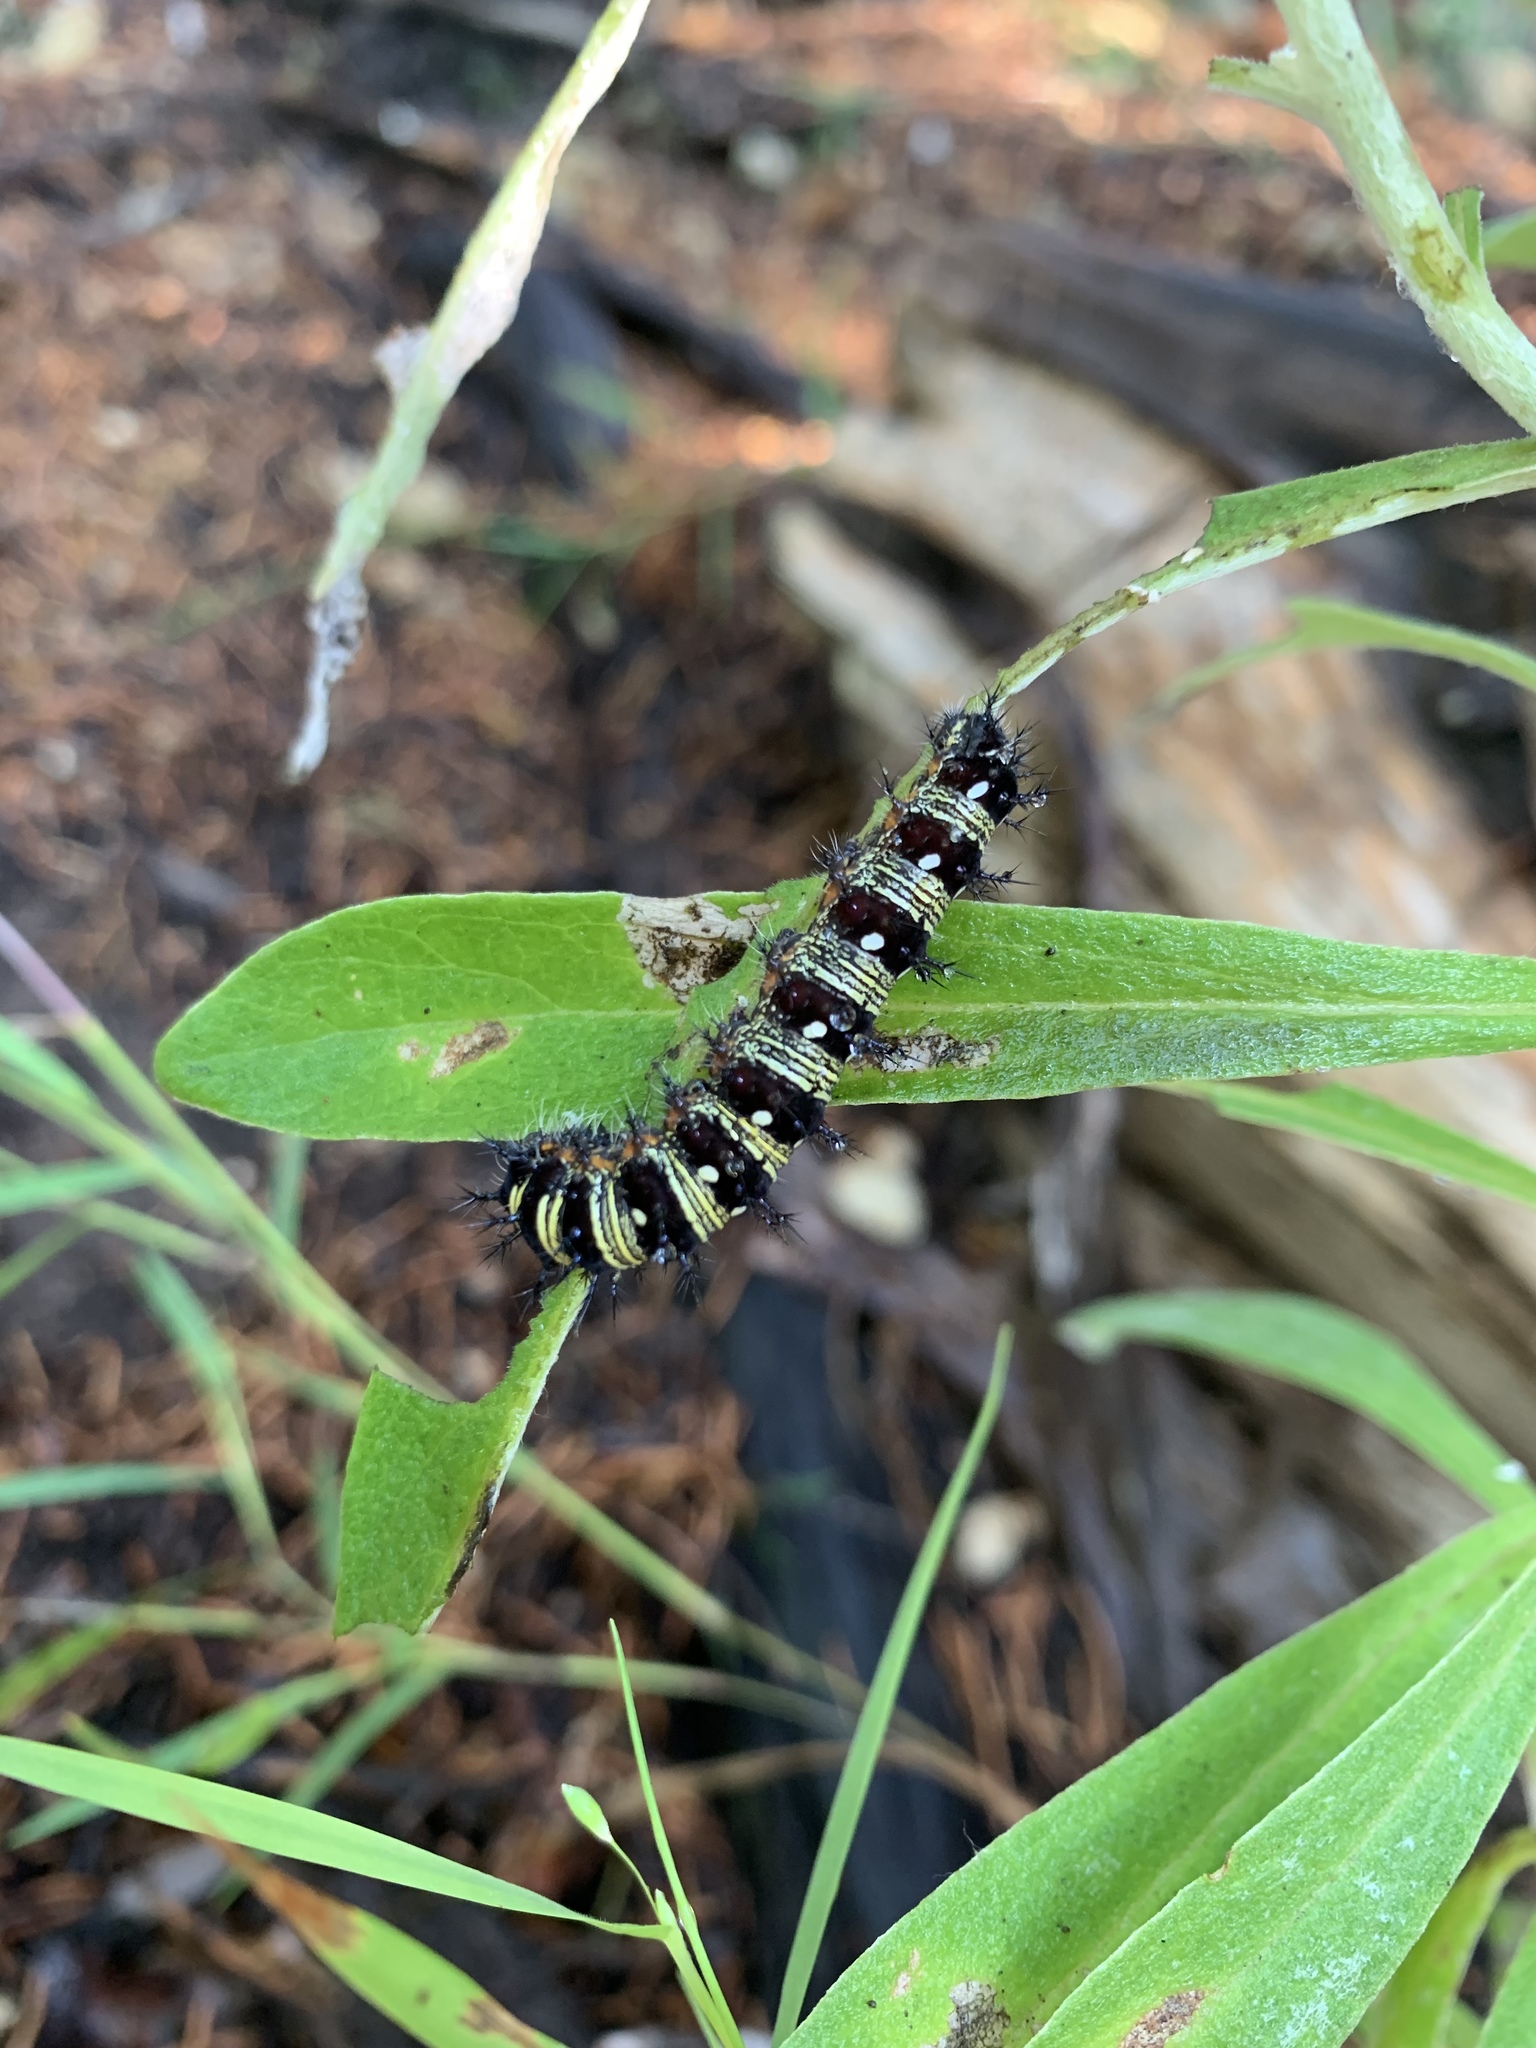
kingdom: Animalia
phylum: Arthropoda
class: Insecta
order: Lepidoptera
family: Nymphalidae
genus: Vanessa
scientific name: Vanessa virginiensis
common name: American lady
